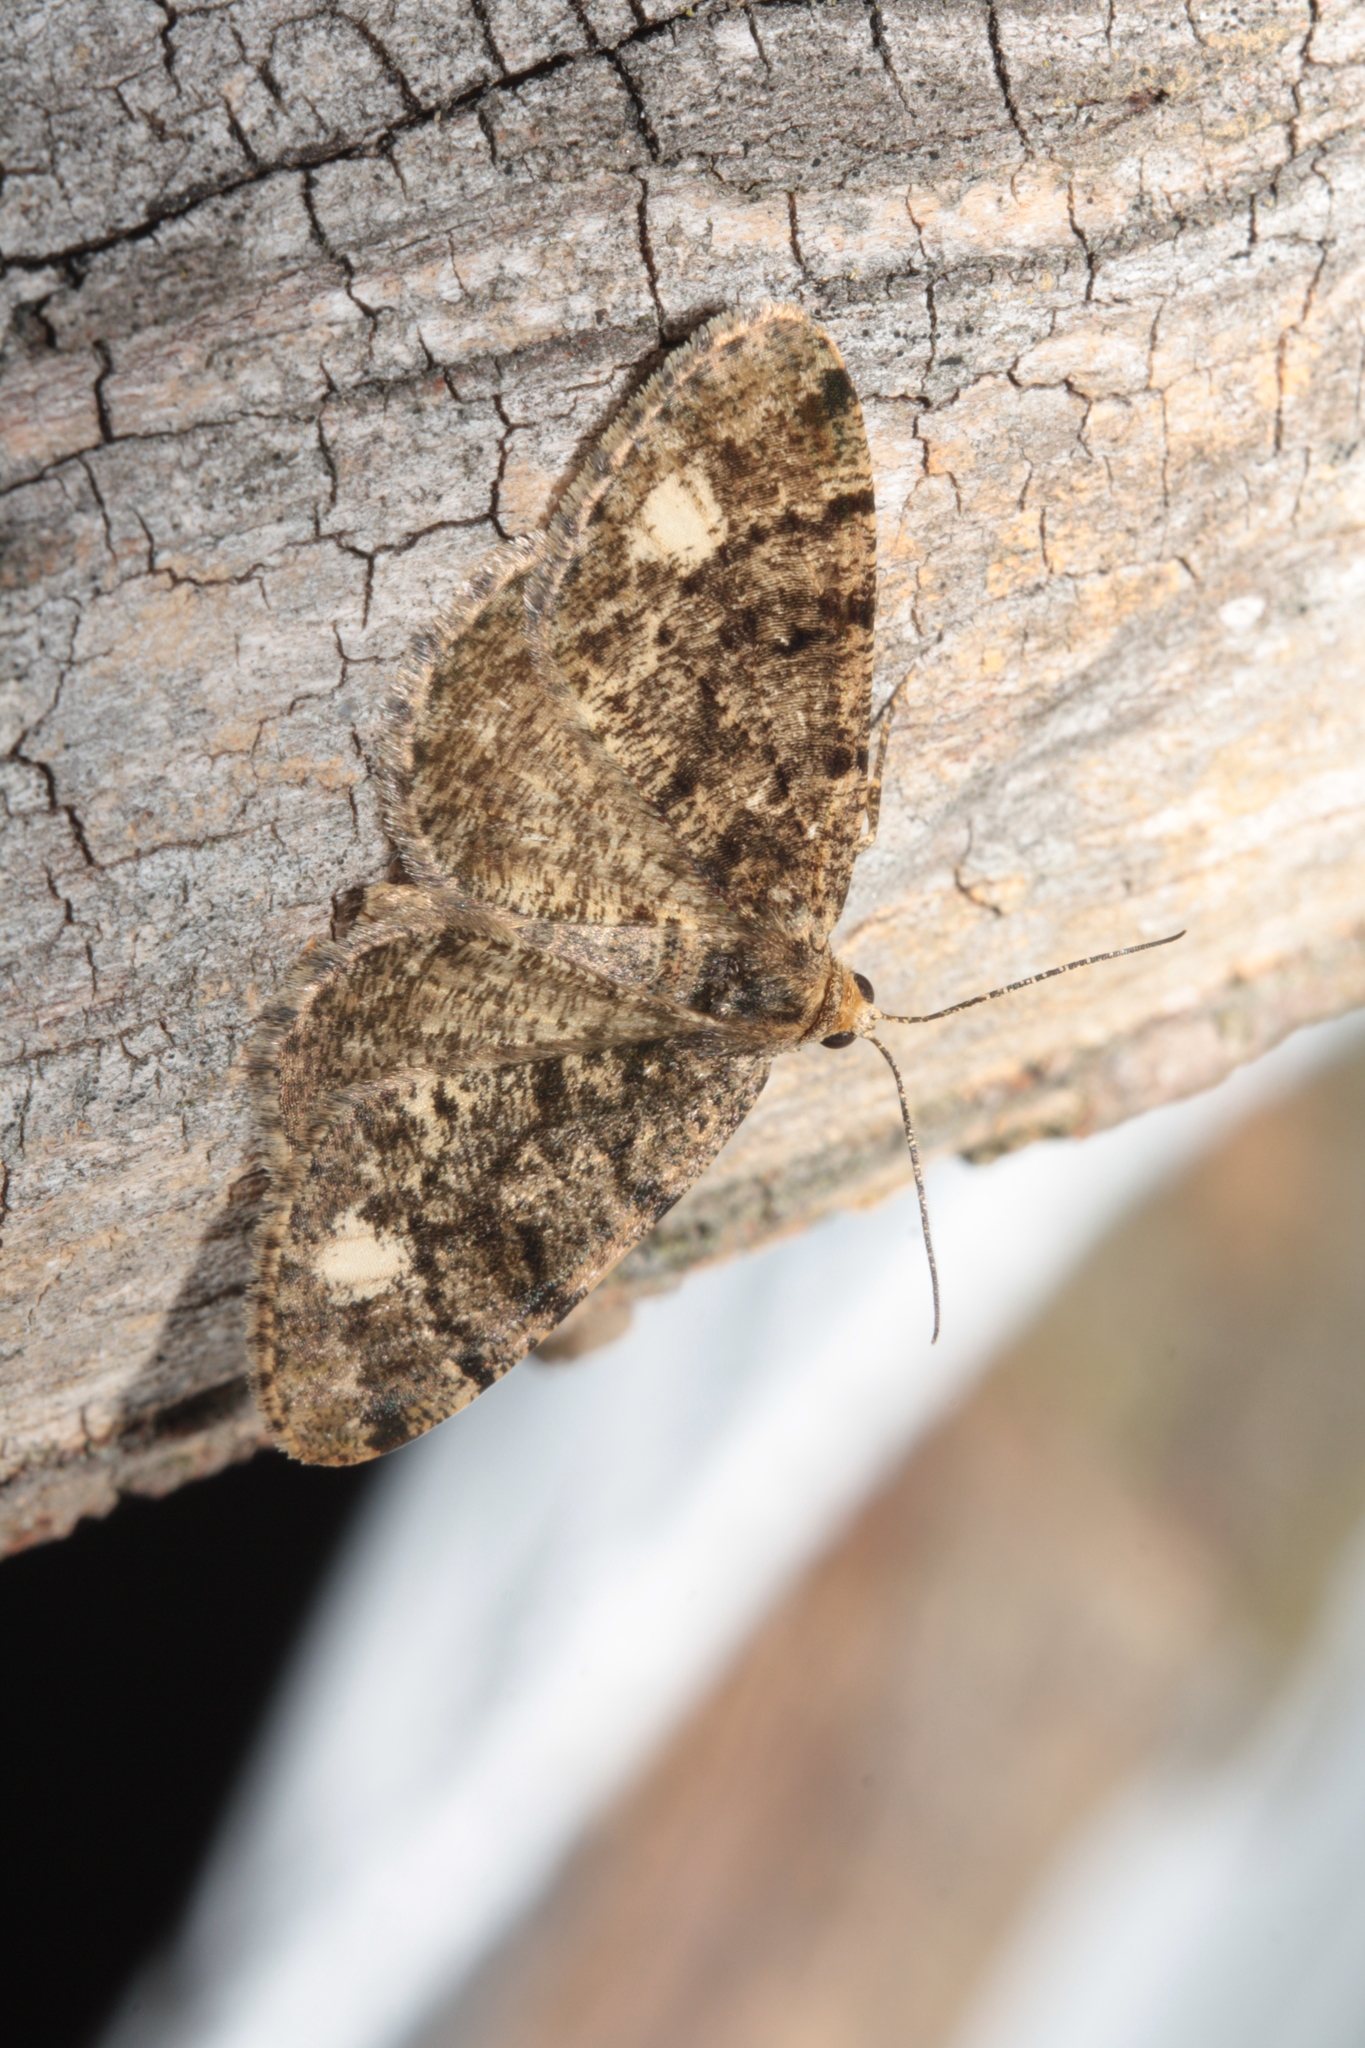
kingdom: Animalia
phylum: Arthropoda
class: Insecta
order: Lepidoptera
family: Geometridae
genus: Parectropis
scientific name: Parectropis similaria
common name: Brindled white-spot
